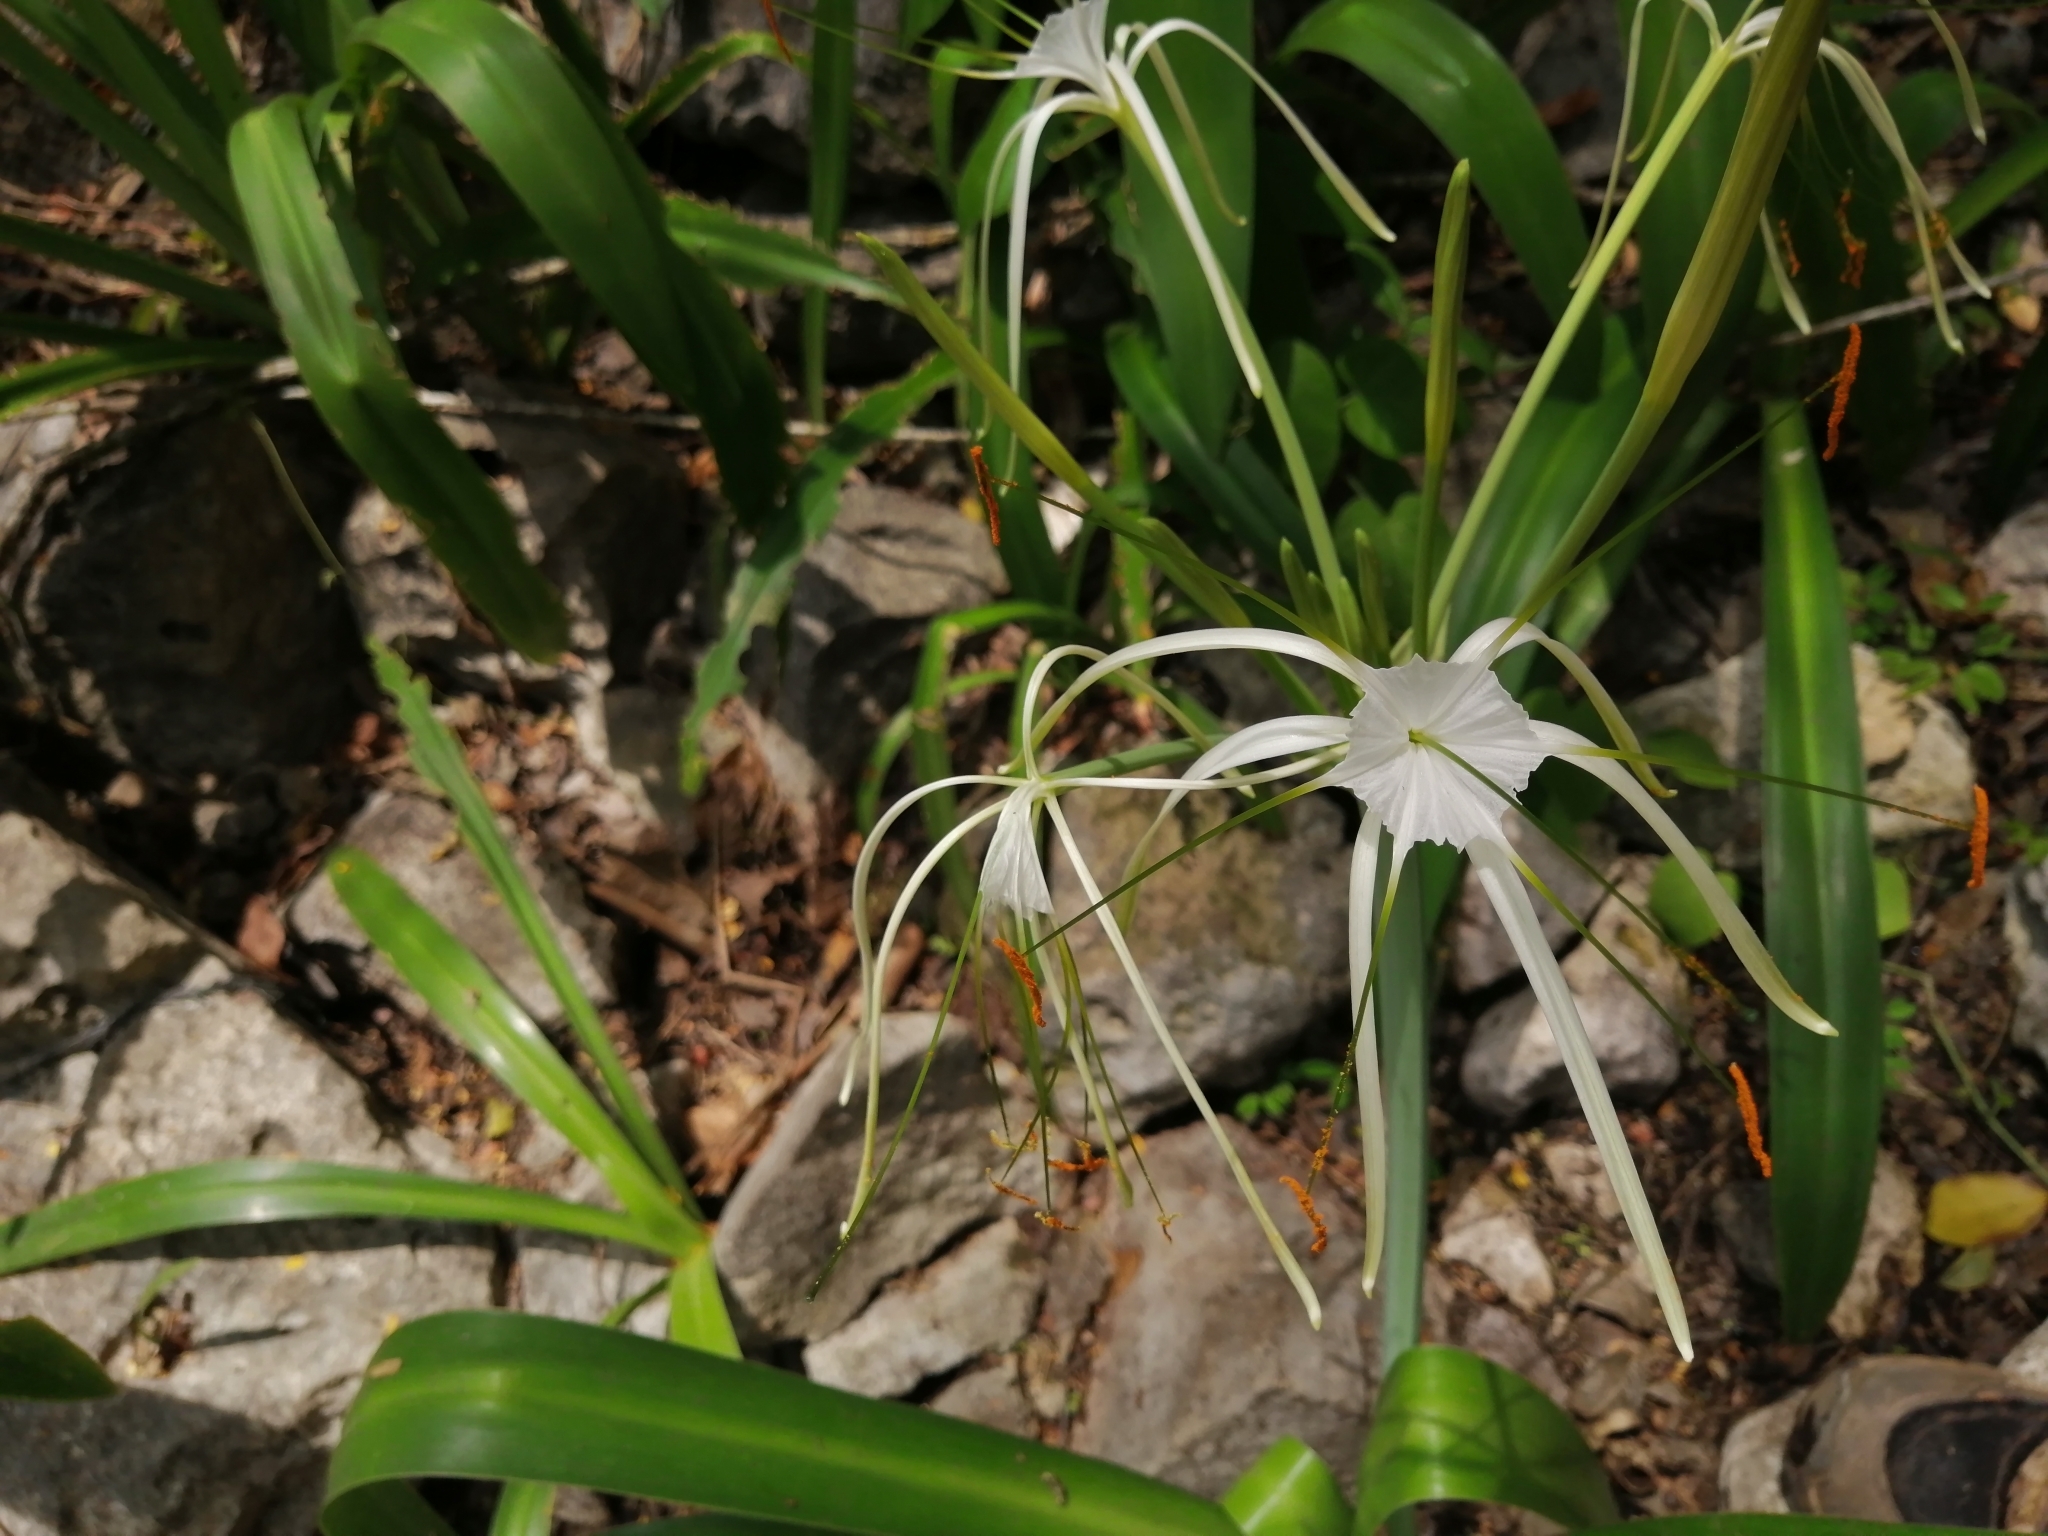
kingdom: Plantae
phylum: Tracheophyta
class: Liliopsida
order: Asparagales
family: Amaryllidaceae
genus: Hymenocallis
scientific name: Hymenocallis littoralis
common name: Beach spiderlily
